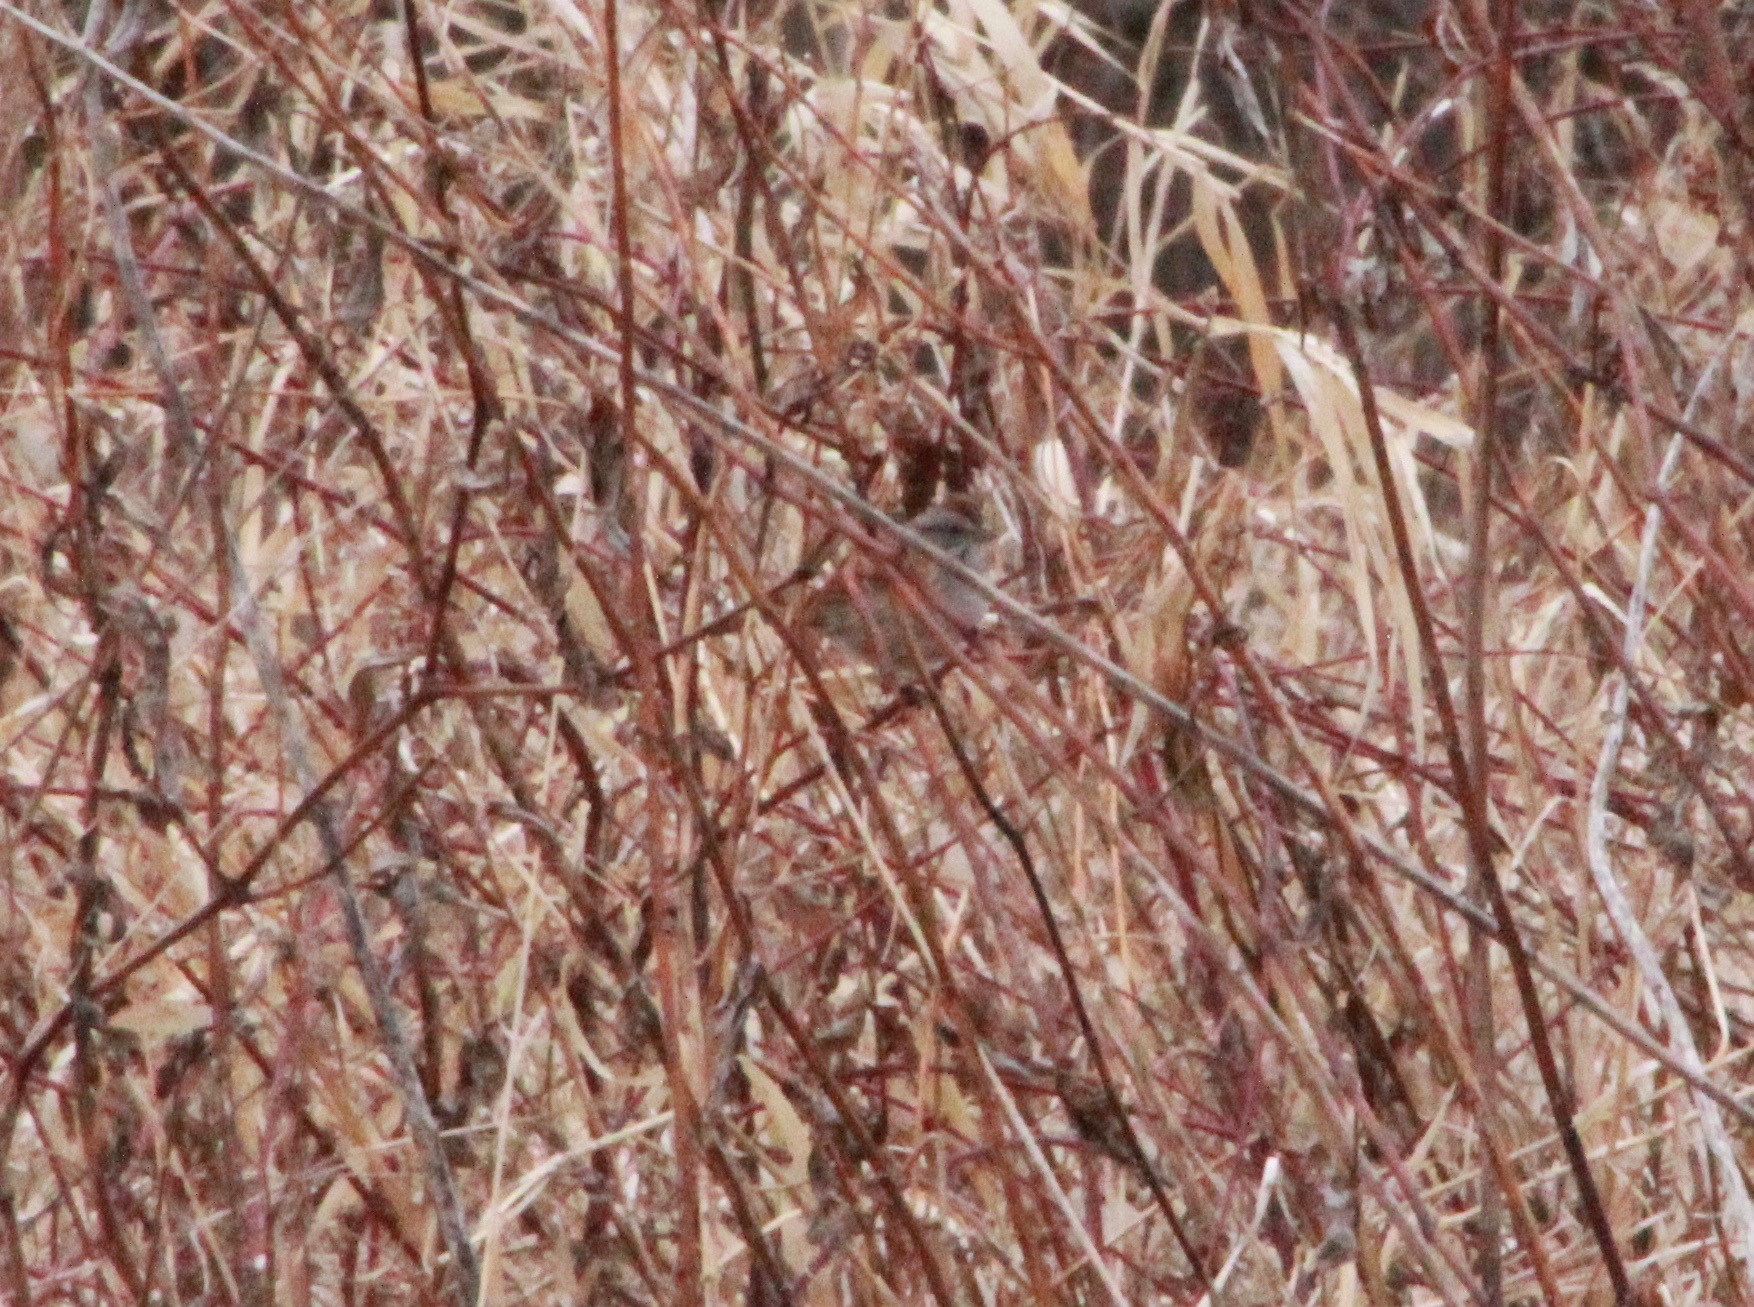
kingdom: Animalia
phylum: Chordata
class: Aves
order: Passeriformes
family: Passerellidae
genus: Melospiza
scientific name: Melospiza georgiana
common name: Swamp sparrow
